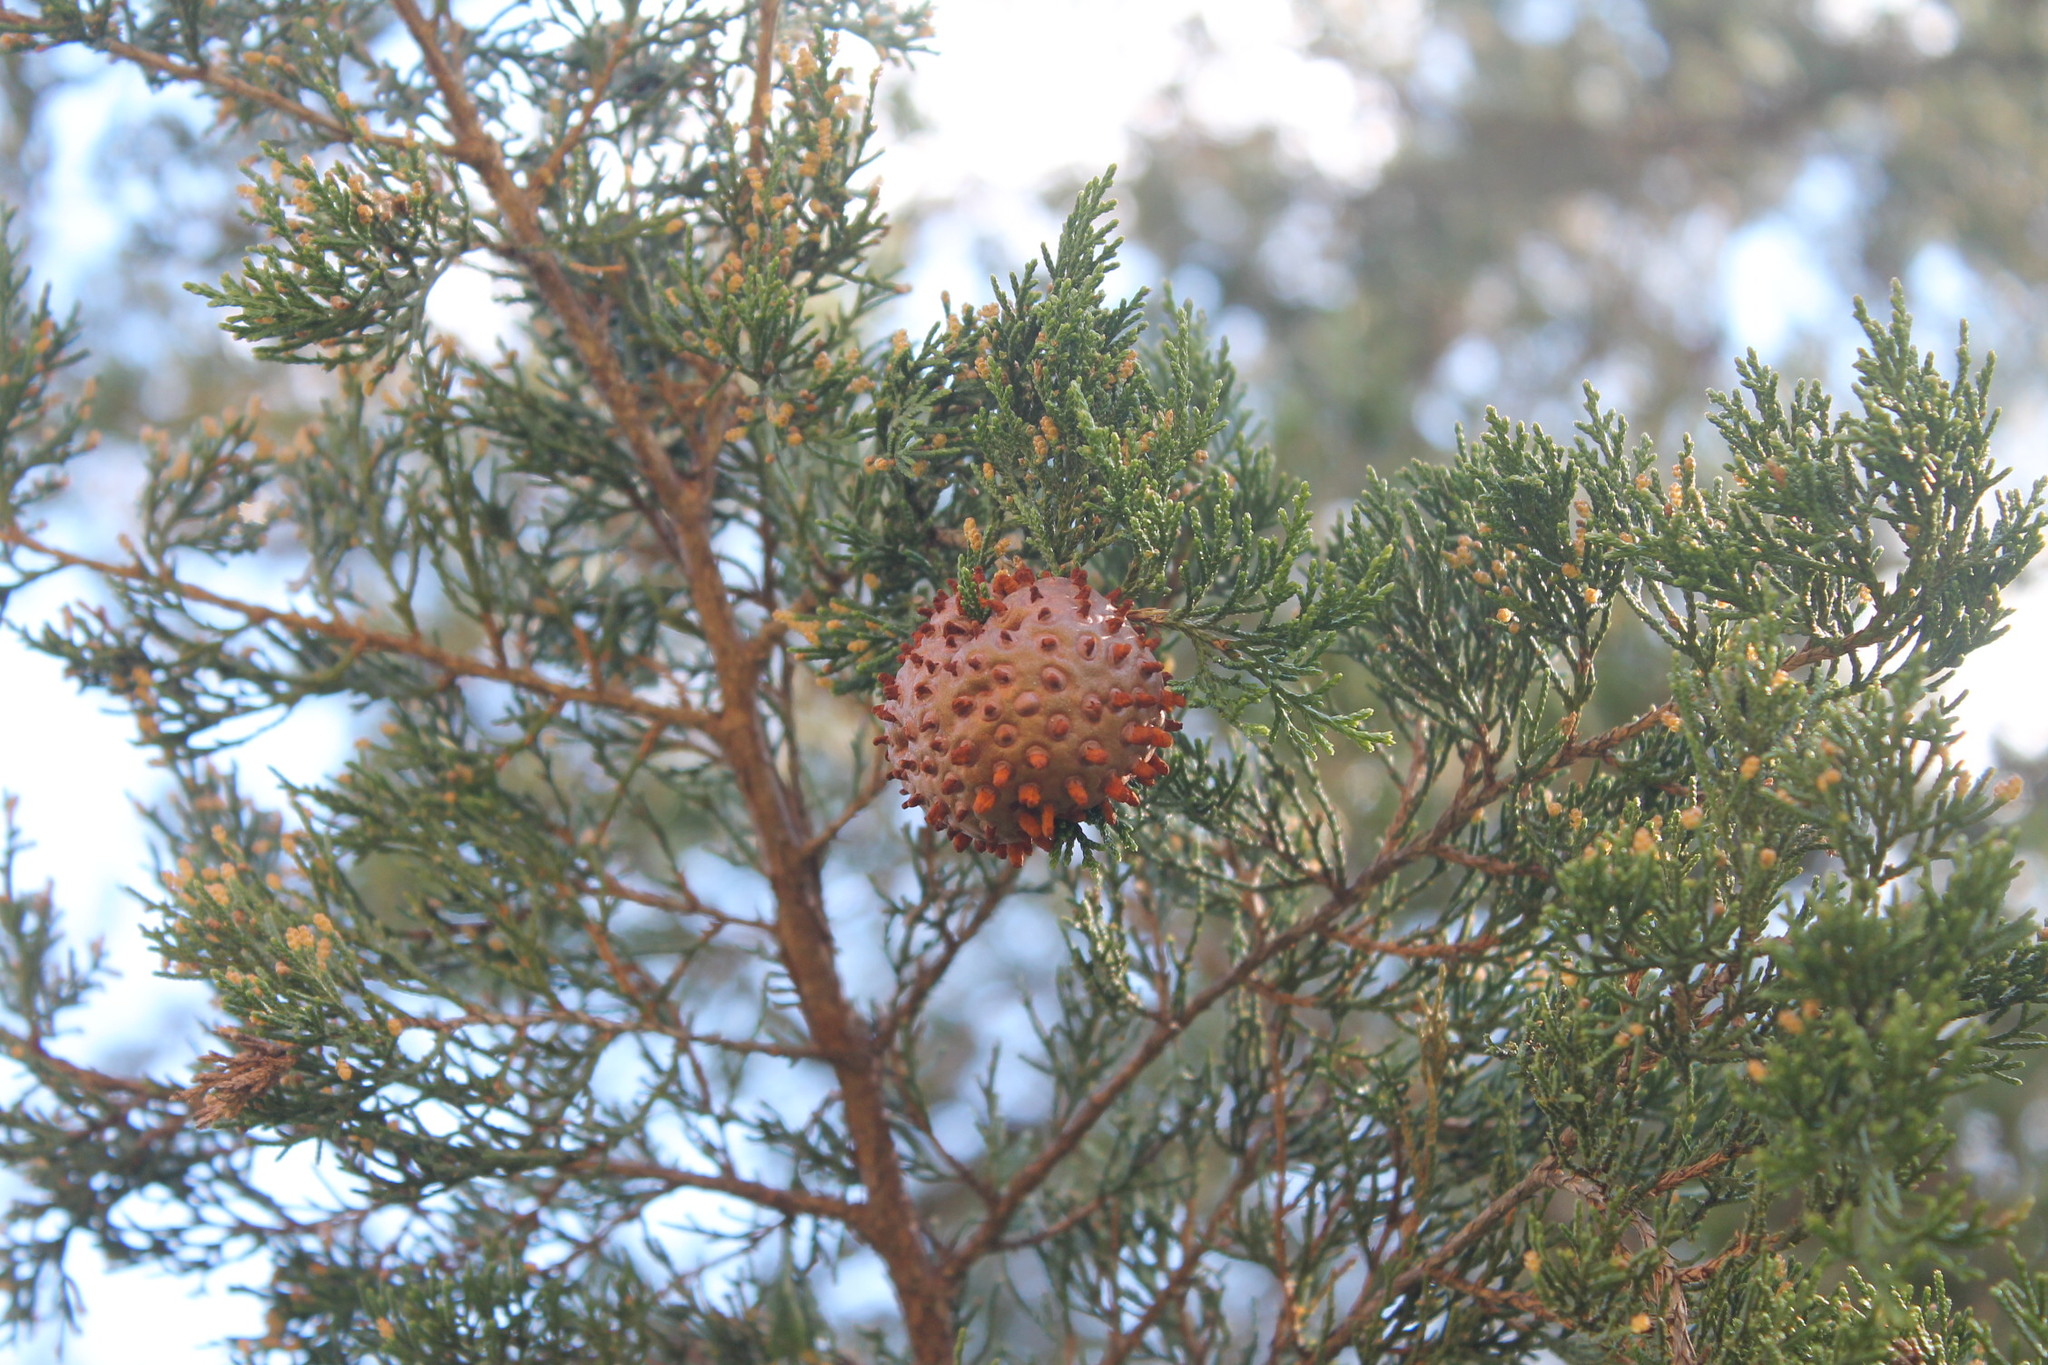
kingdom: Fungi
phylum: Basidiomycota
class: Pucciniomycetes
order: Pucciniales
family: Gymnosporangiaceae
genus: Gymnosporangium
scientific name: Gymnosporangium juniperi-virginianae
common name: Juniper-apple rust
